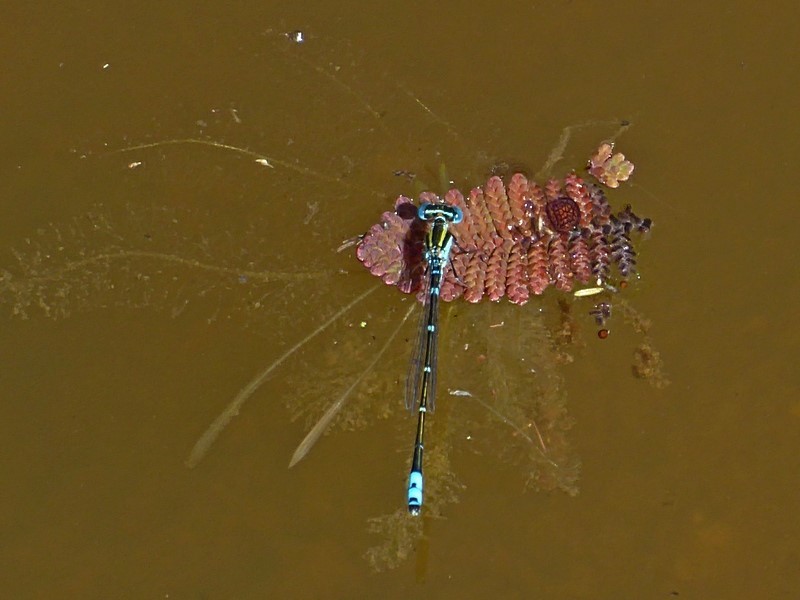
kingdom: Animalia
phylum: Arthropoda
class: Insecta
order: Odonata
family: Coenagrionidae
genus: Austroagrion
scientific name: Austroagrion watsoni
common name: Eastern billabongfly
